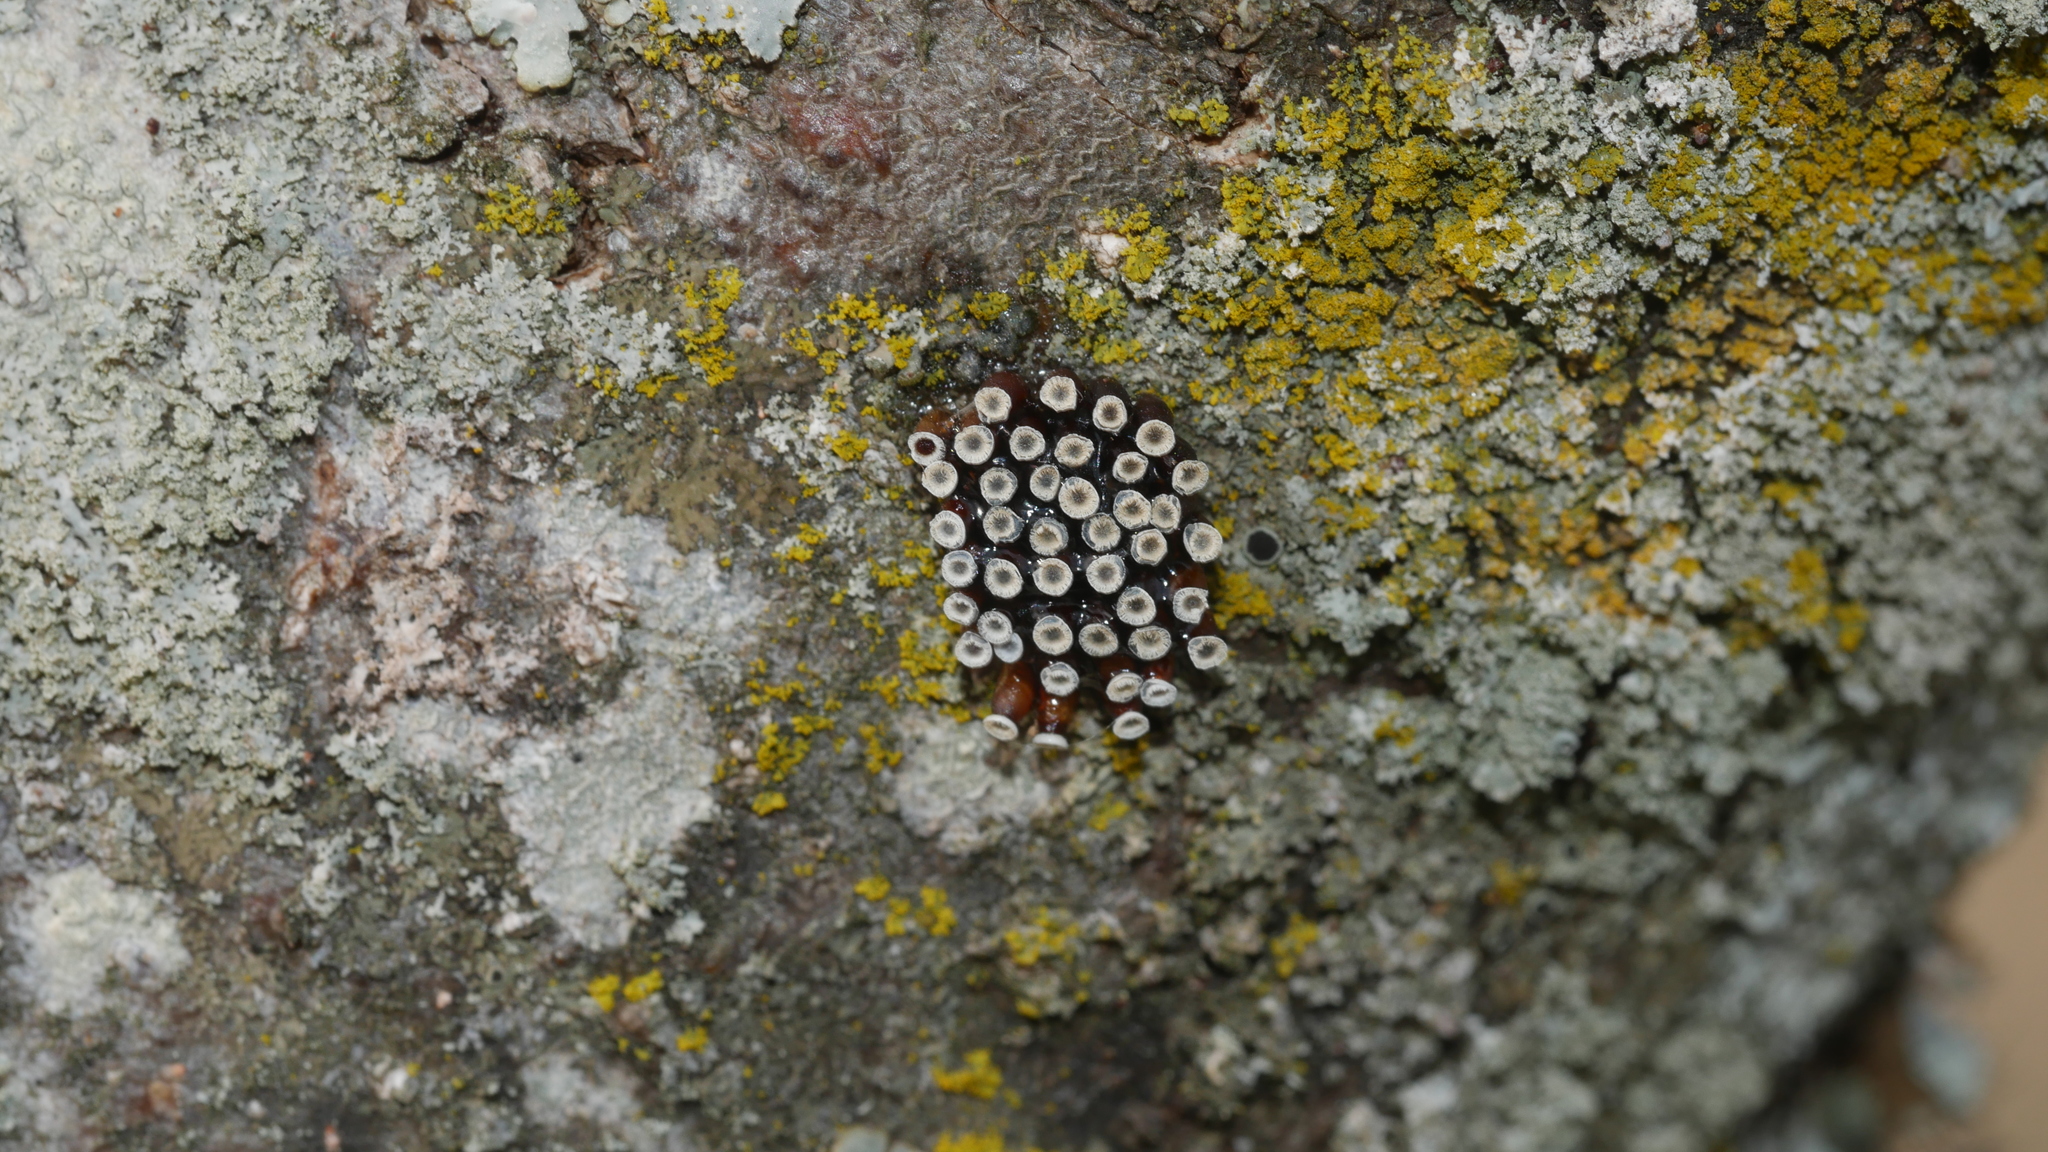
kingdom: Animalia
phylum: Arthropoda
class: Insecta
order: Hemiptera
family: Reduviidae
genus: Arilus
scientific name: Arilus cristatus
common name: North american wheel bug
